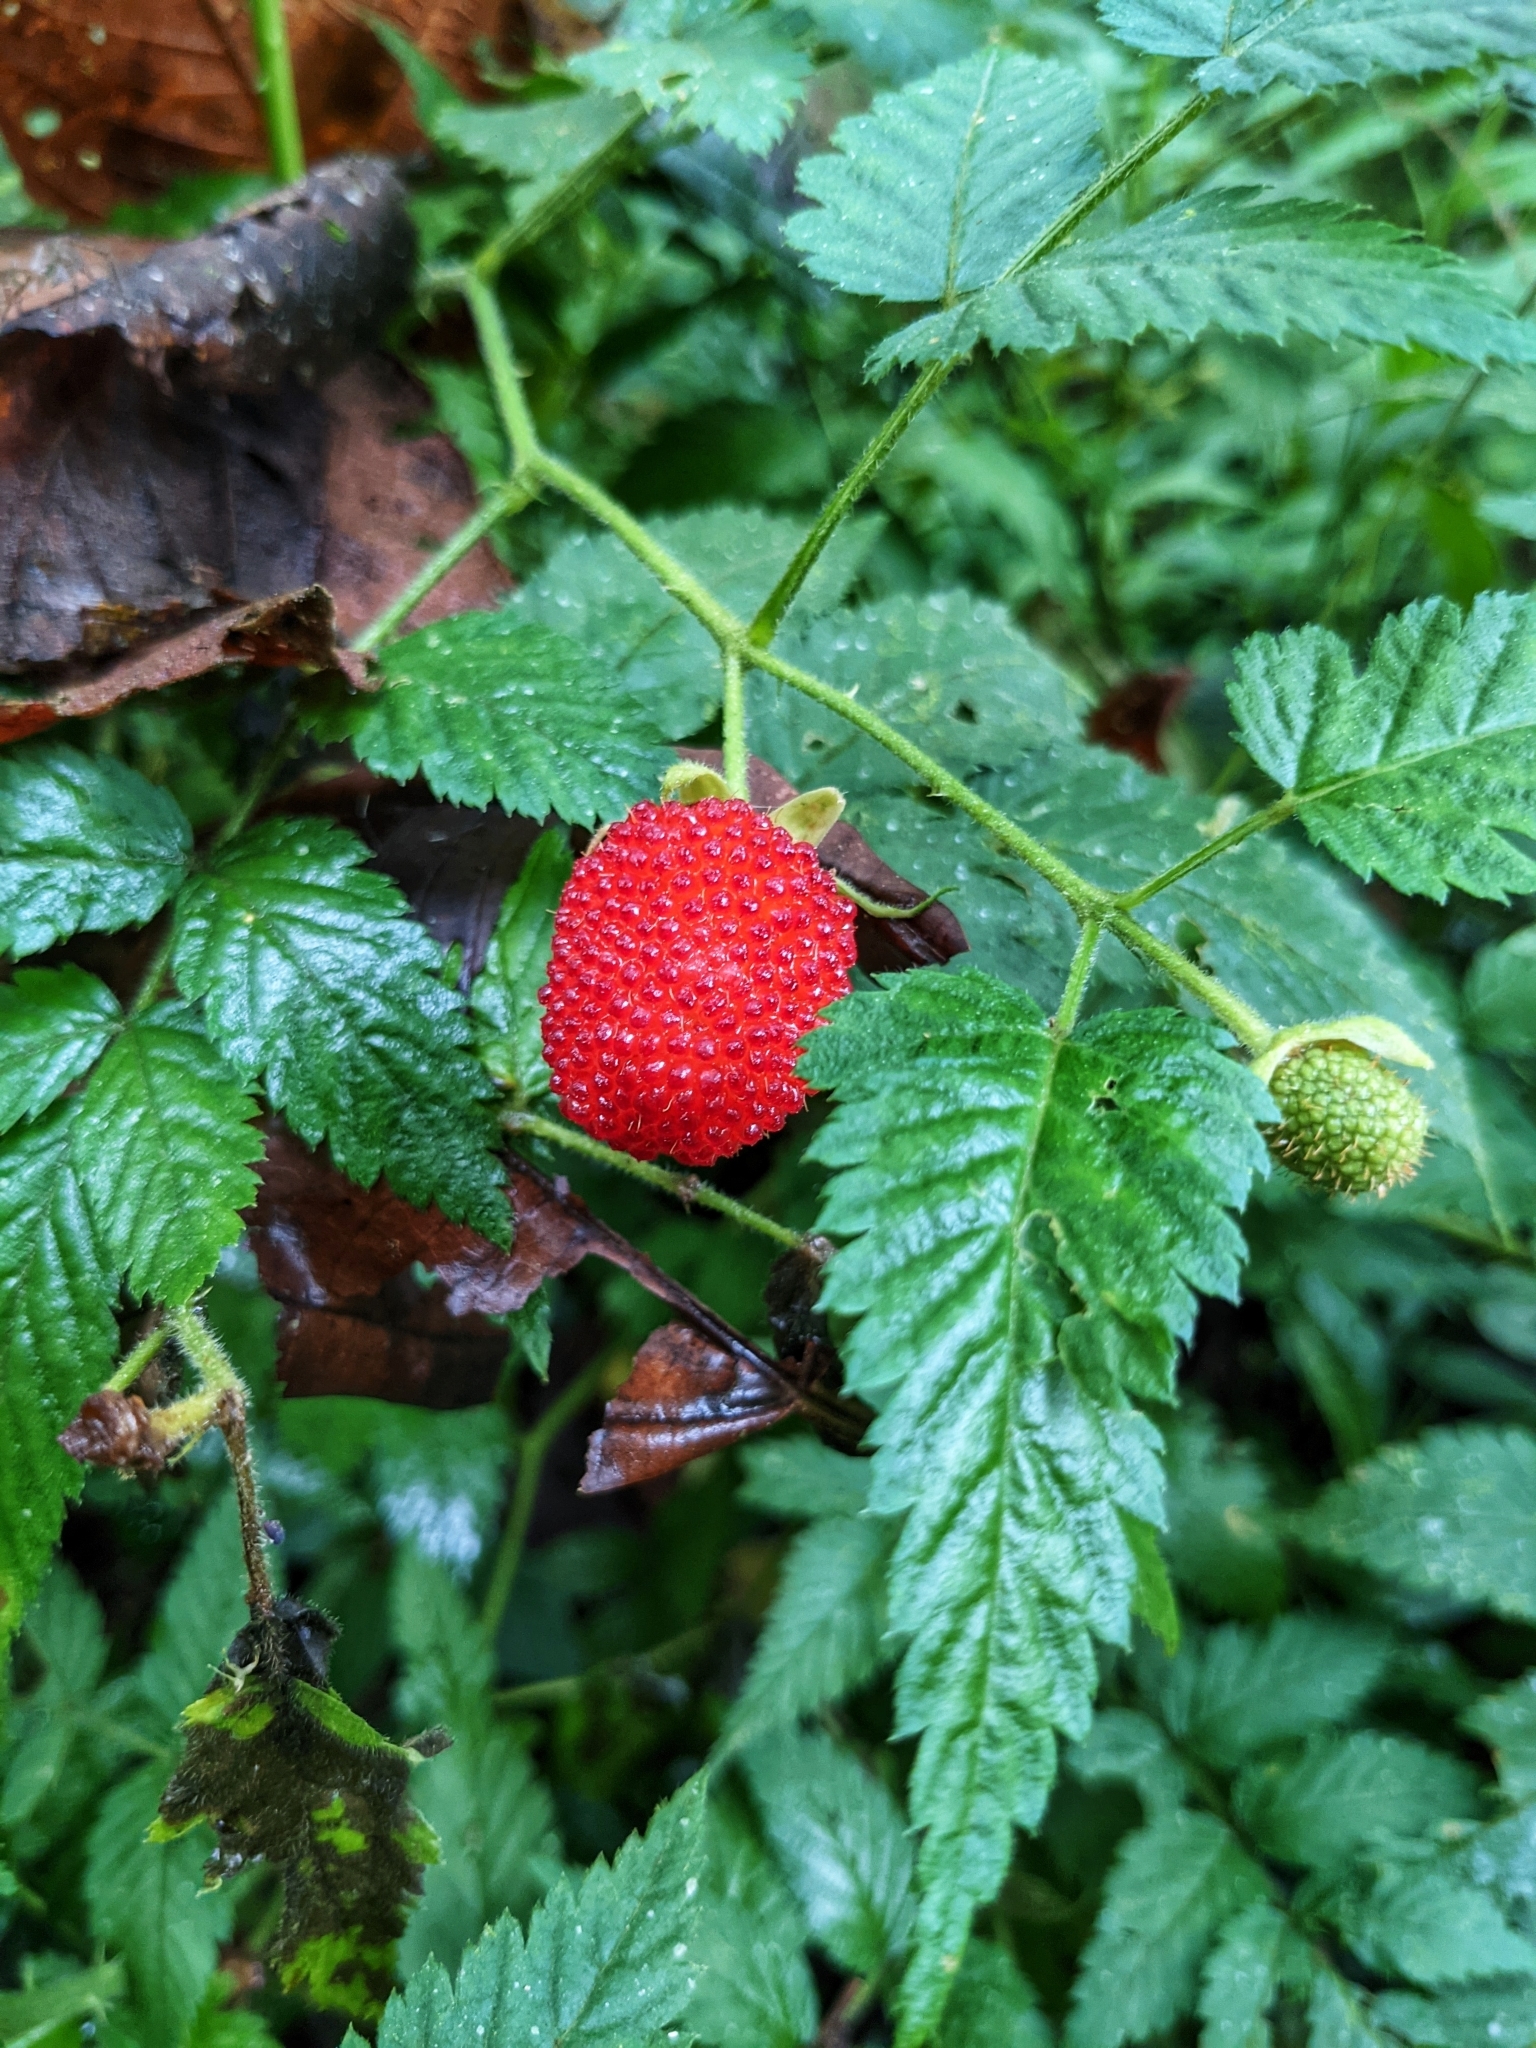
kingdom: Plantae
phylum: Tracheophyta
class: Magnoliopsida
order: Rosales
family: Rosaceae
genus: Rubus
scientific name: Rubus rosifolius
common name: Roseleaf raspberry
